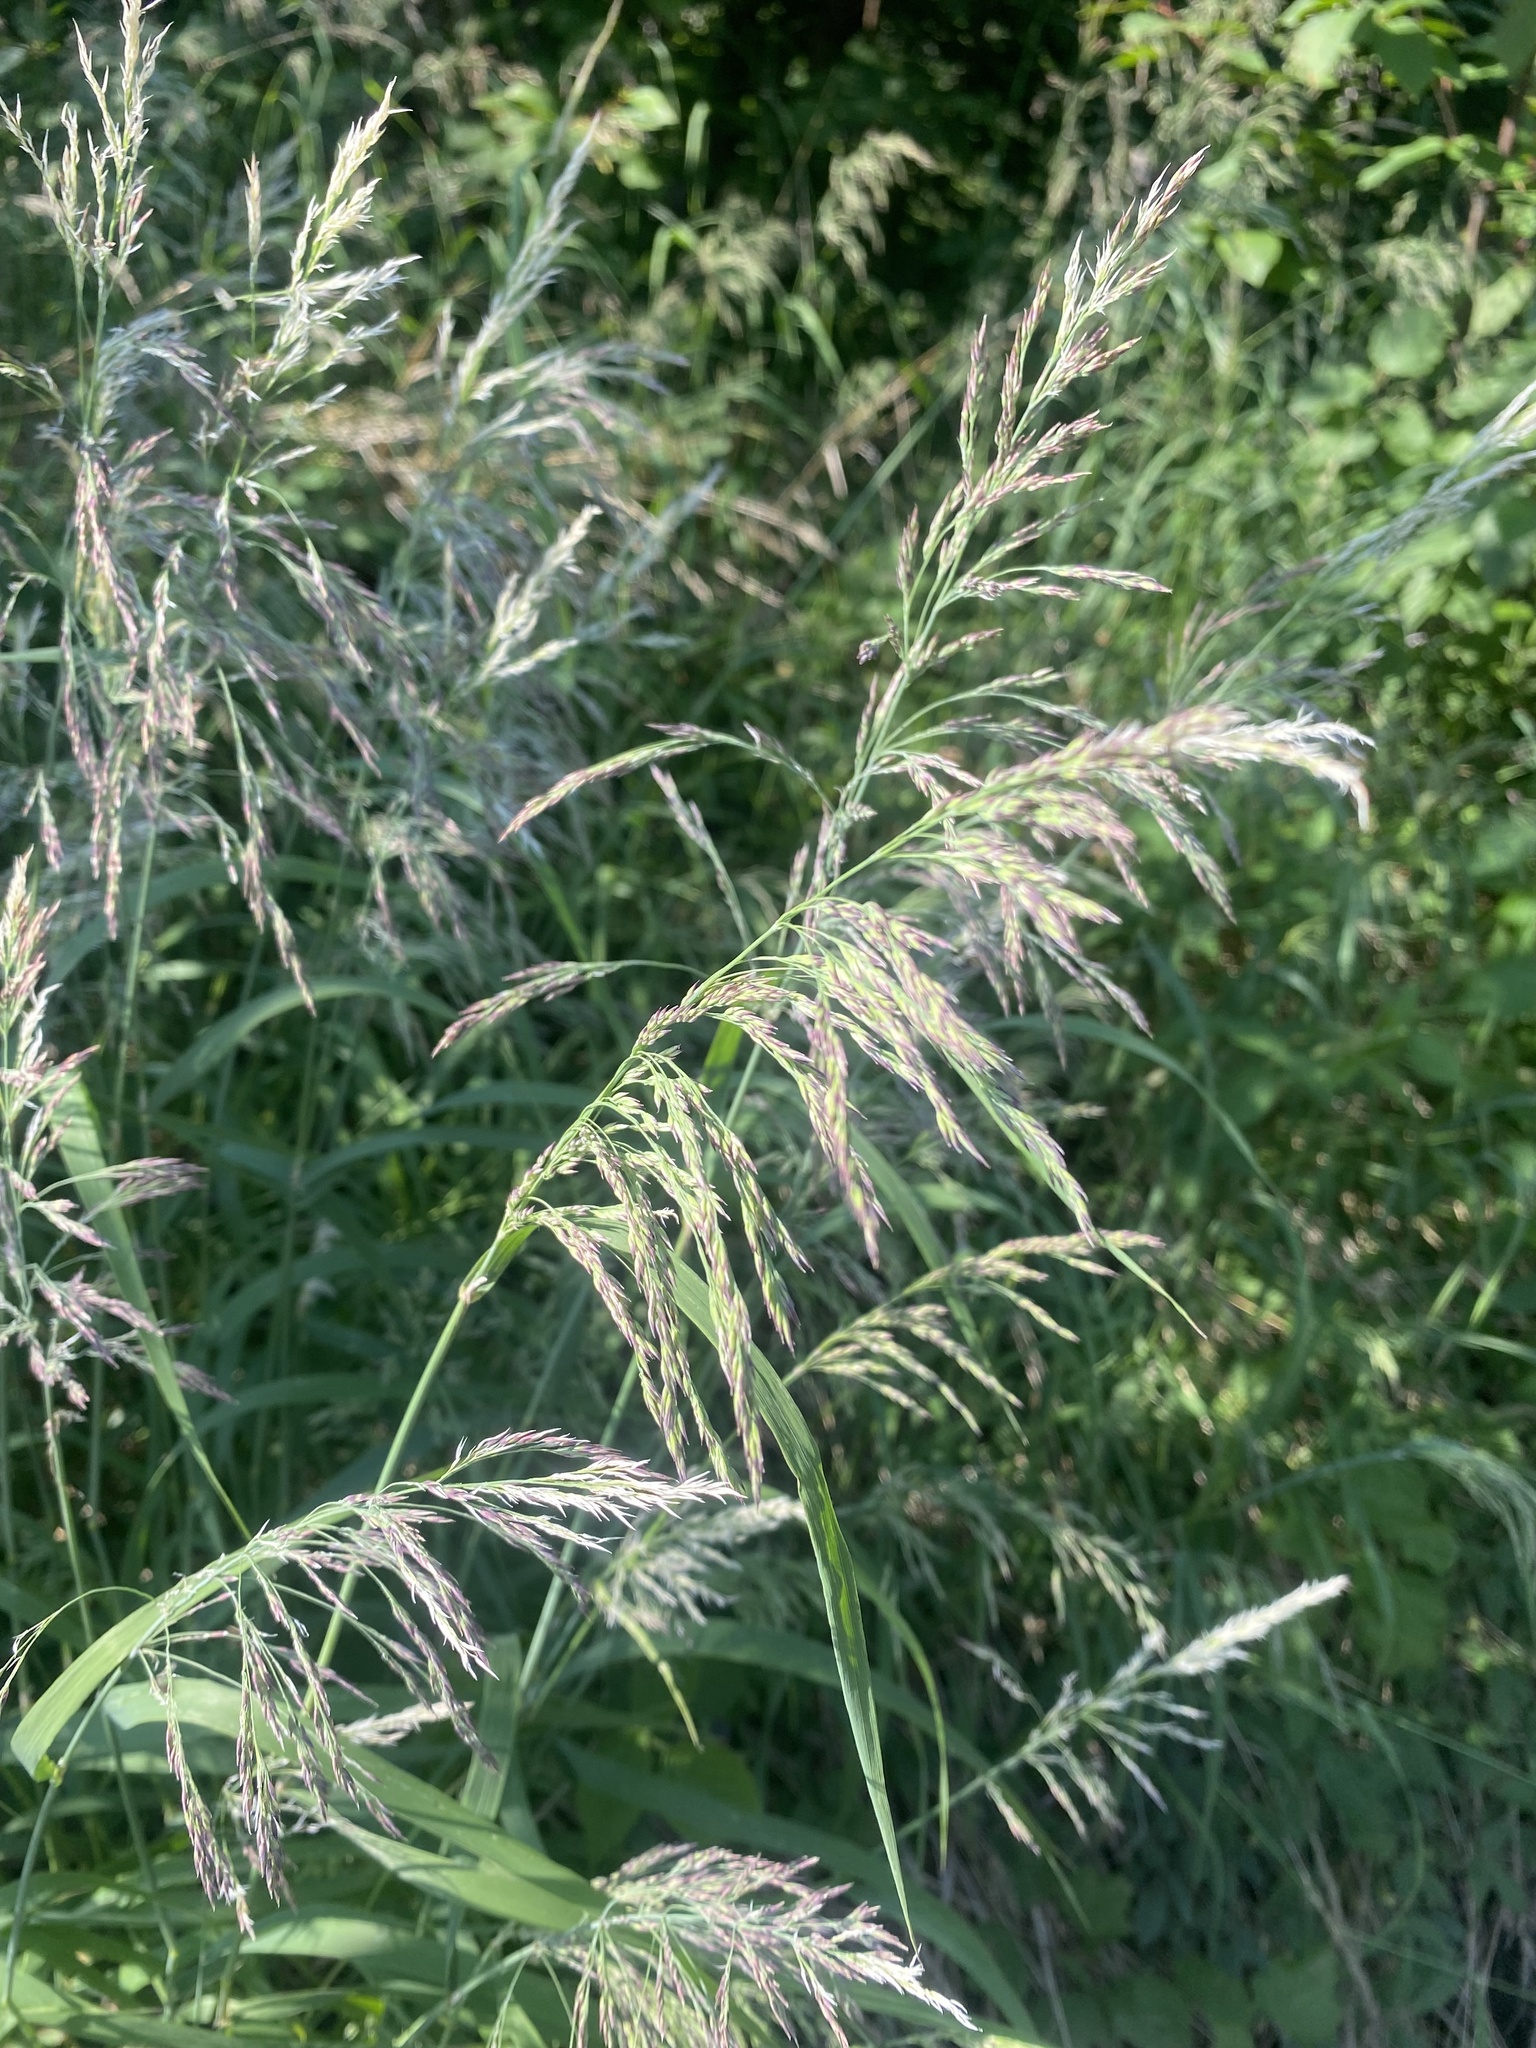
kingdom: Plantae
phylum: Tracheophyta
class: Liliopsida
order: Poales
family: Poaceae
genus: Calamagrostis
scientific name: Calamagrostis purpurea
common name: Scandinavian small-reed
